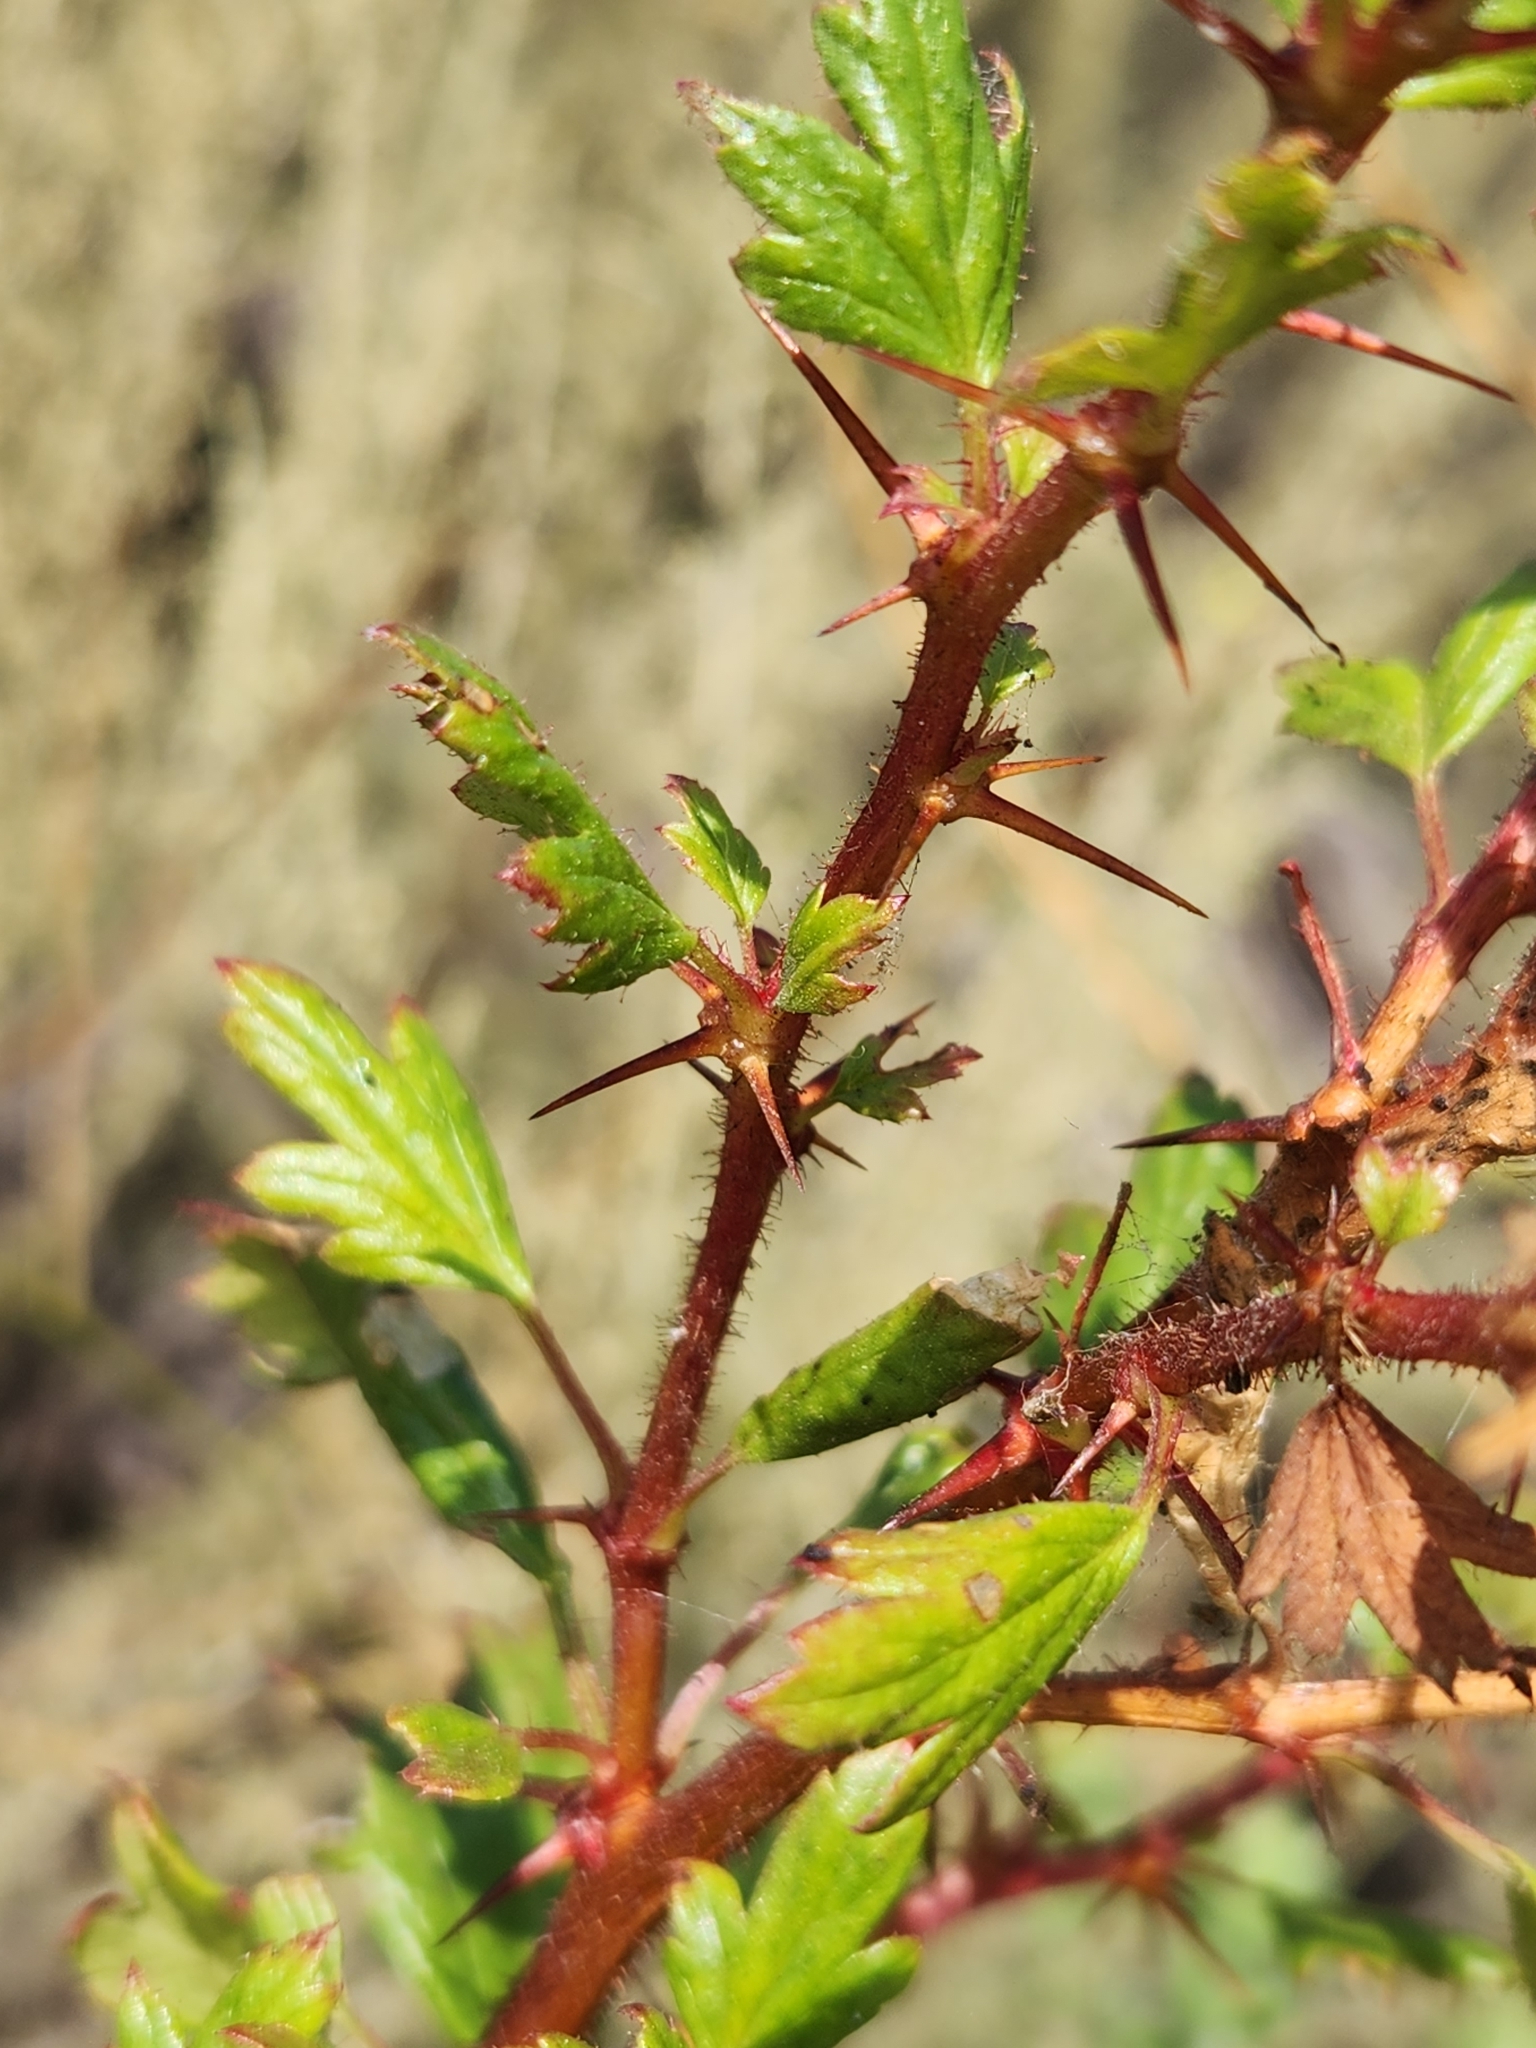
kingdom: Plantae
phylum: Tracheophyta
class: Magnoliopsida
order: Saxifragales
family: Grossulariaceae
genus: Ribes
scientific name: Ribes speciosum
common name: Fuchsia-flower gooseberry
